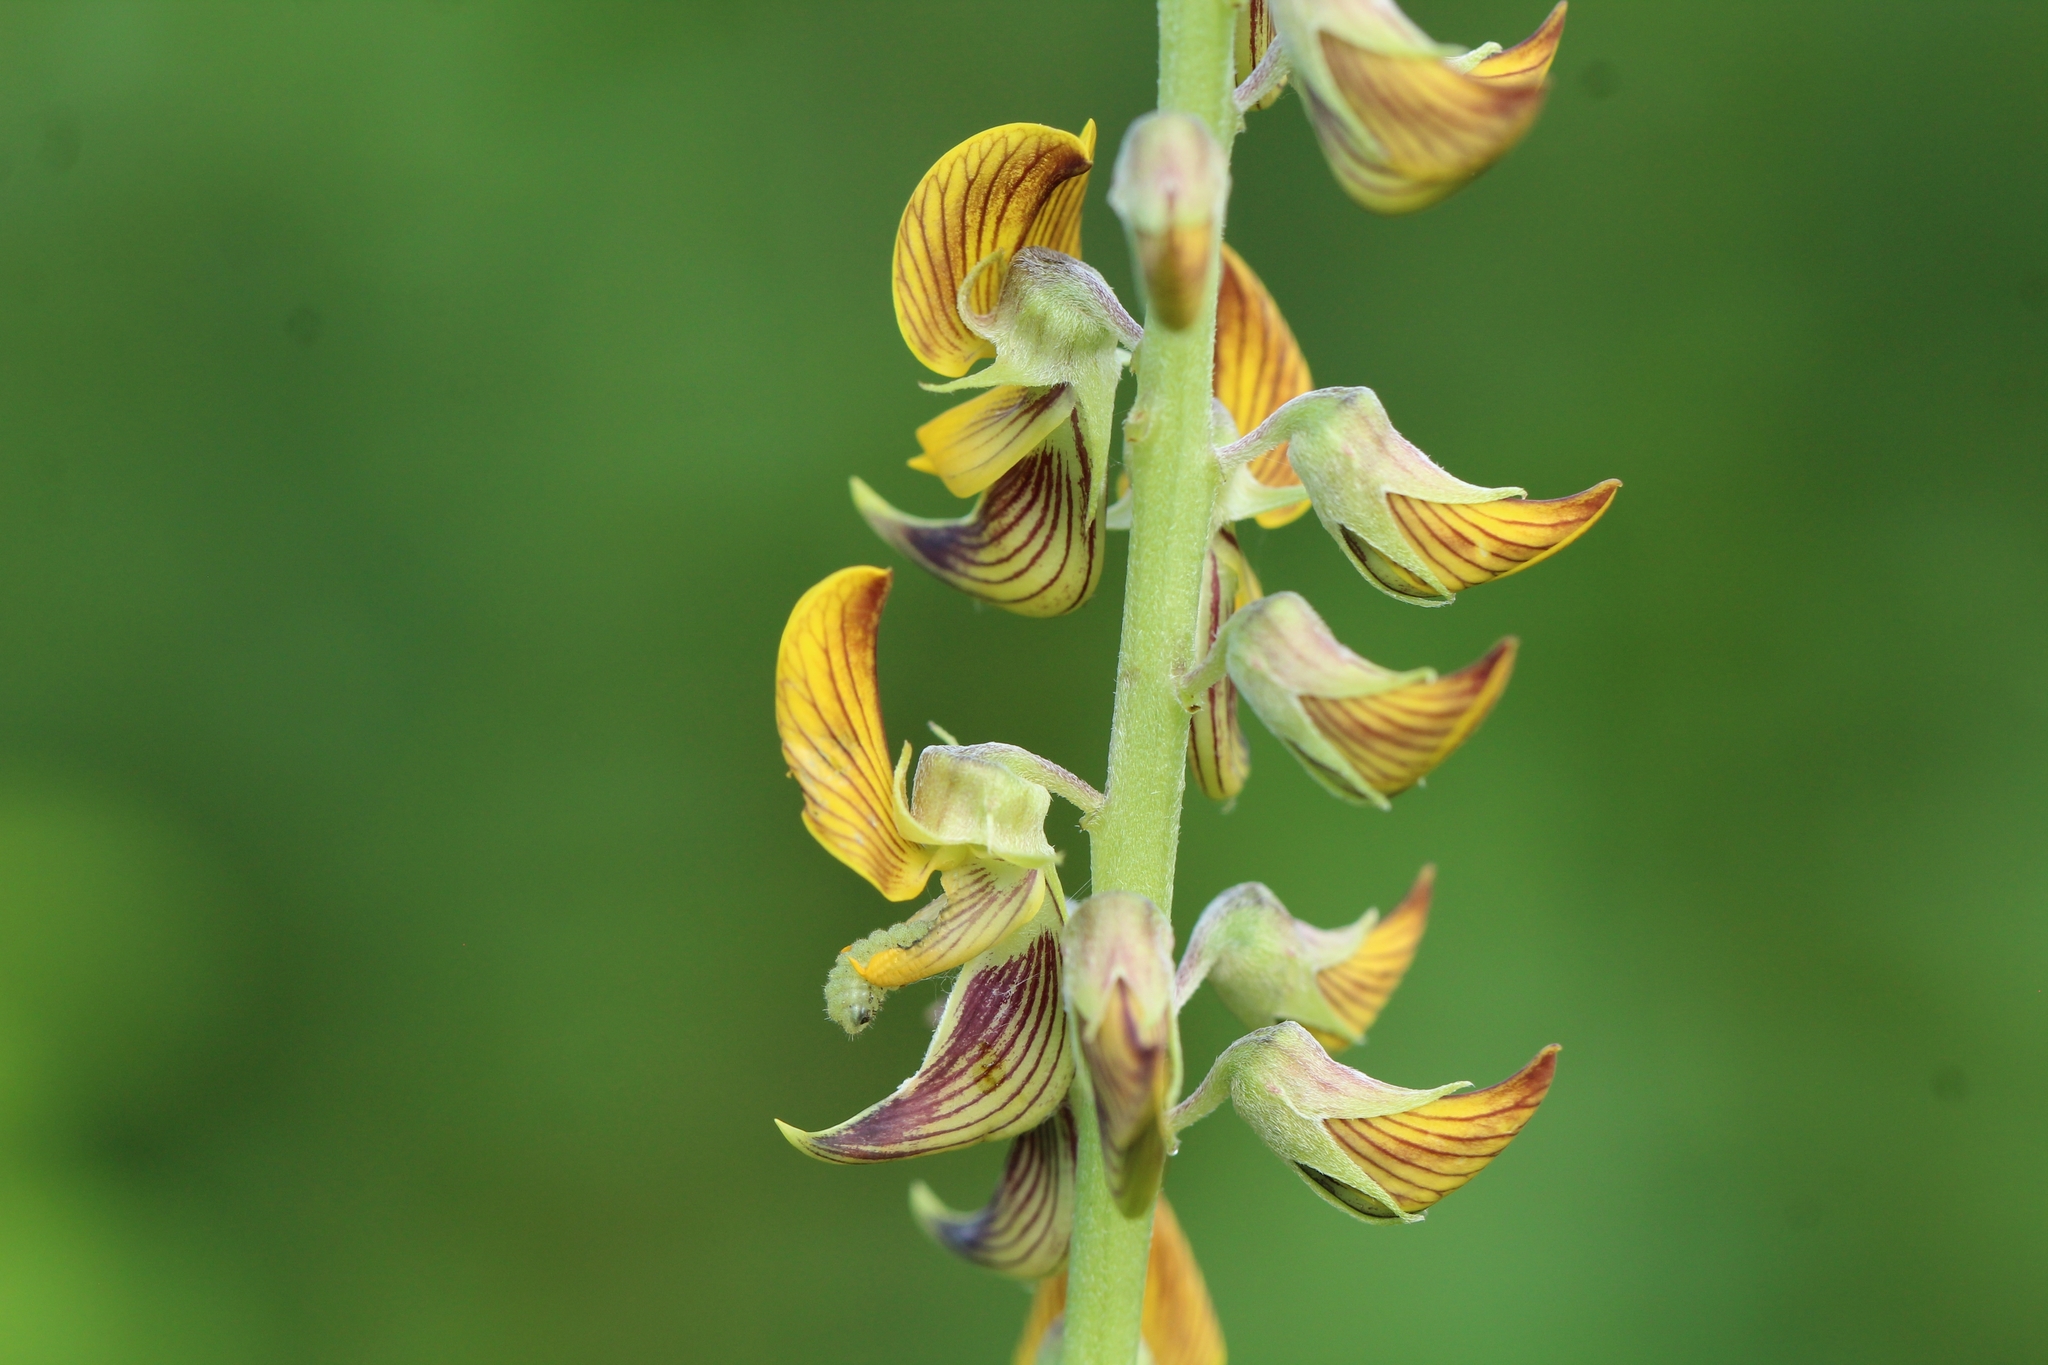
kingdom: Plantae
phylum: Tracheophyta
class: Magnoliopsida
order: Fabales
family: Fabaceae
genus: Crotalaria
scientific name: Crotalaria pallida
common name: Smooth rattlebox
